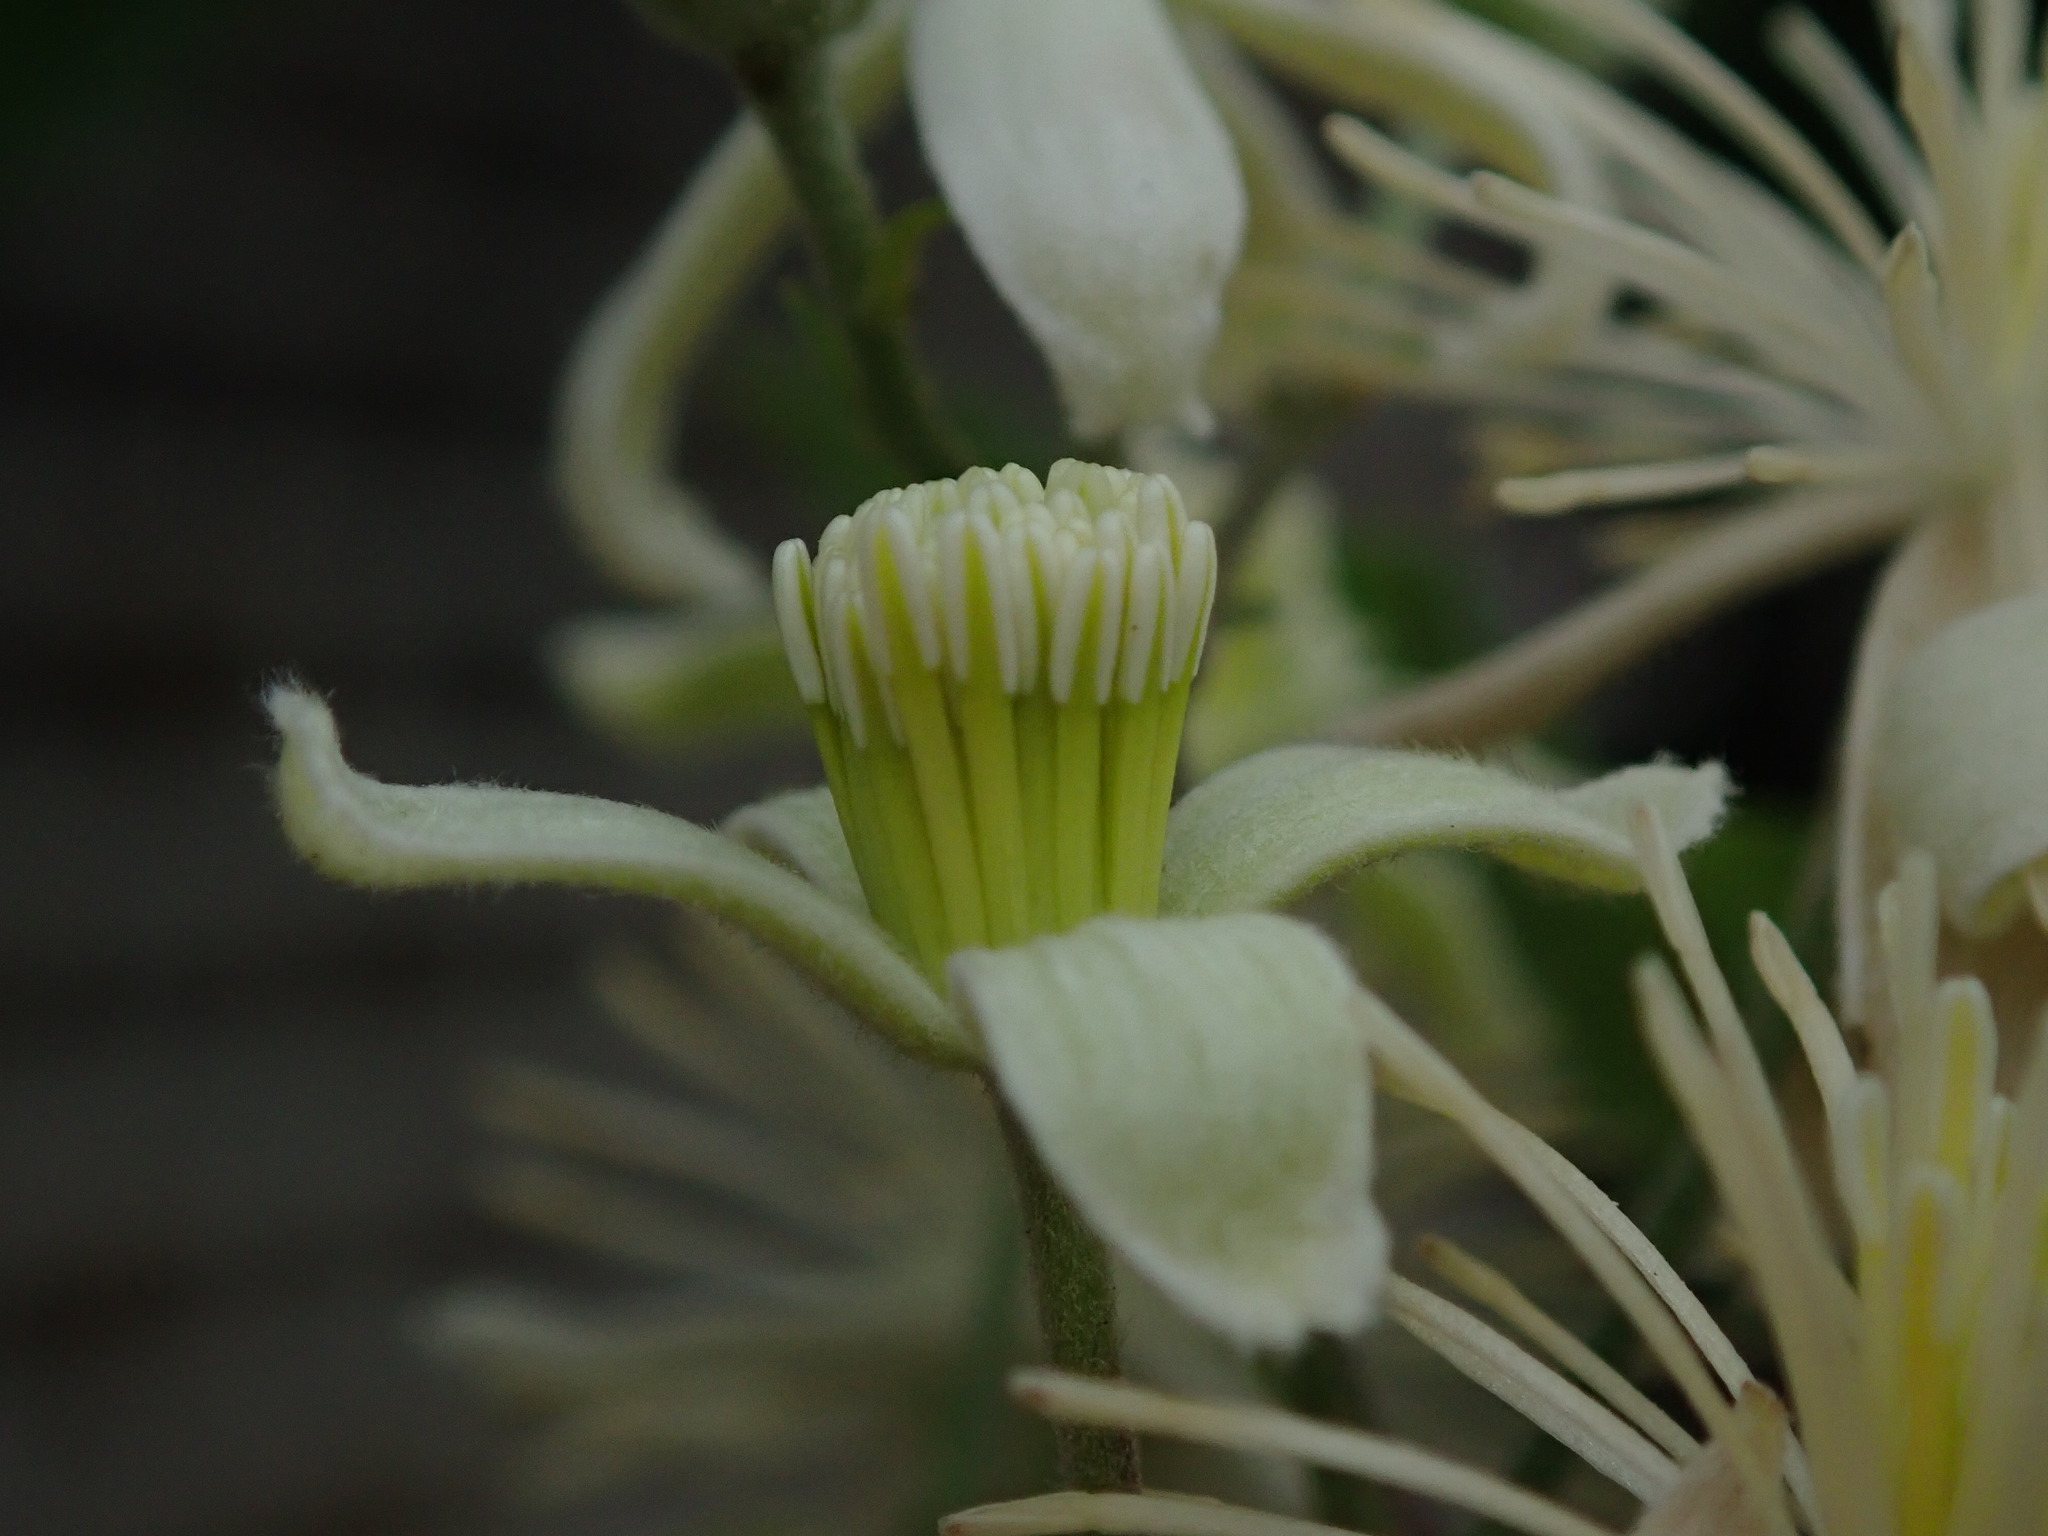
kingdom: Plantae
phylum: Tracheophyta
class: Magnoliopsida
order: Ranunculales
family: Ranunculaceae
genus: Clematis
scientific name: Clematis vitalba
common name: Evergreen clematis
